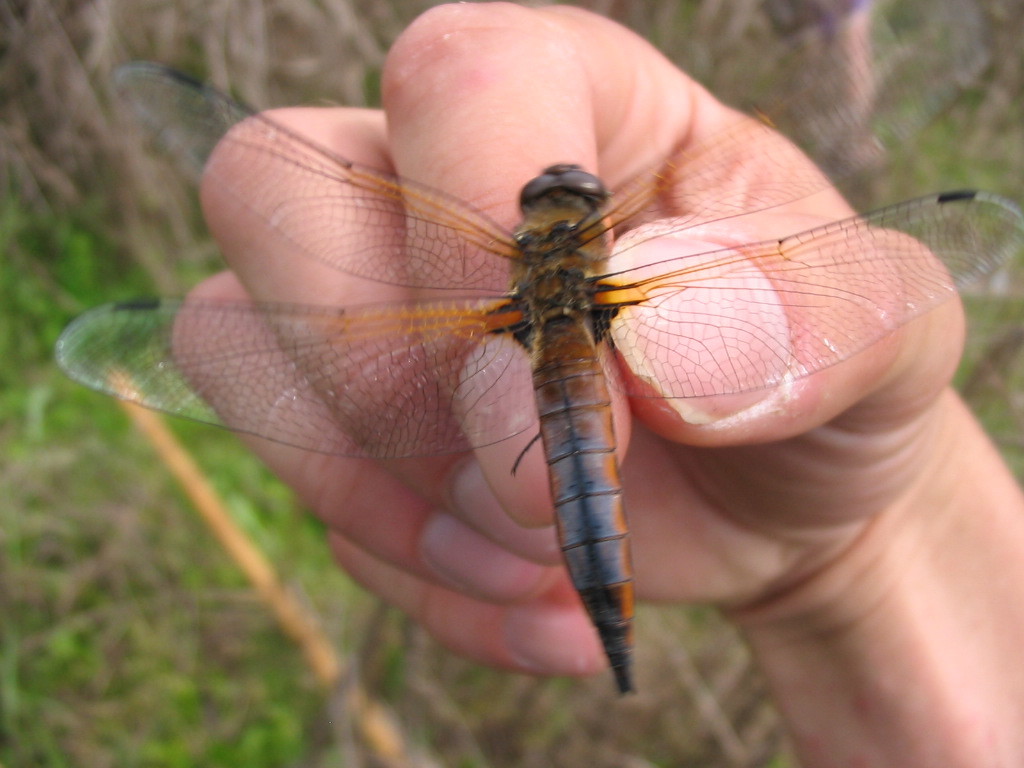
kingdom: Animalia
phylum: Arthropoda
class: Insecta
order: Odonata
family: Libellulidae
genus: Libellula
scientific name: Libellula fulva
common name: Blue chaser
